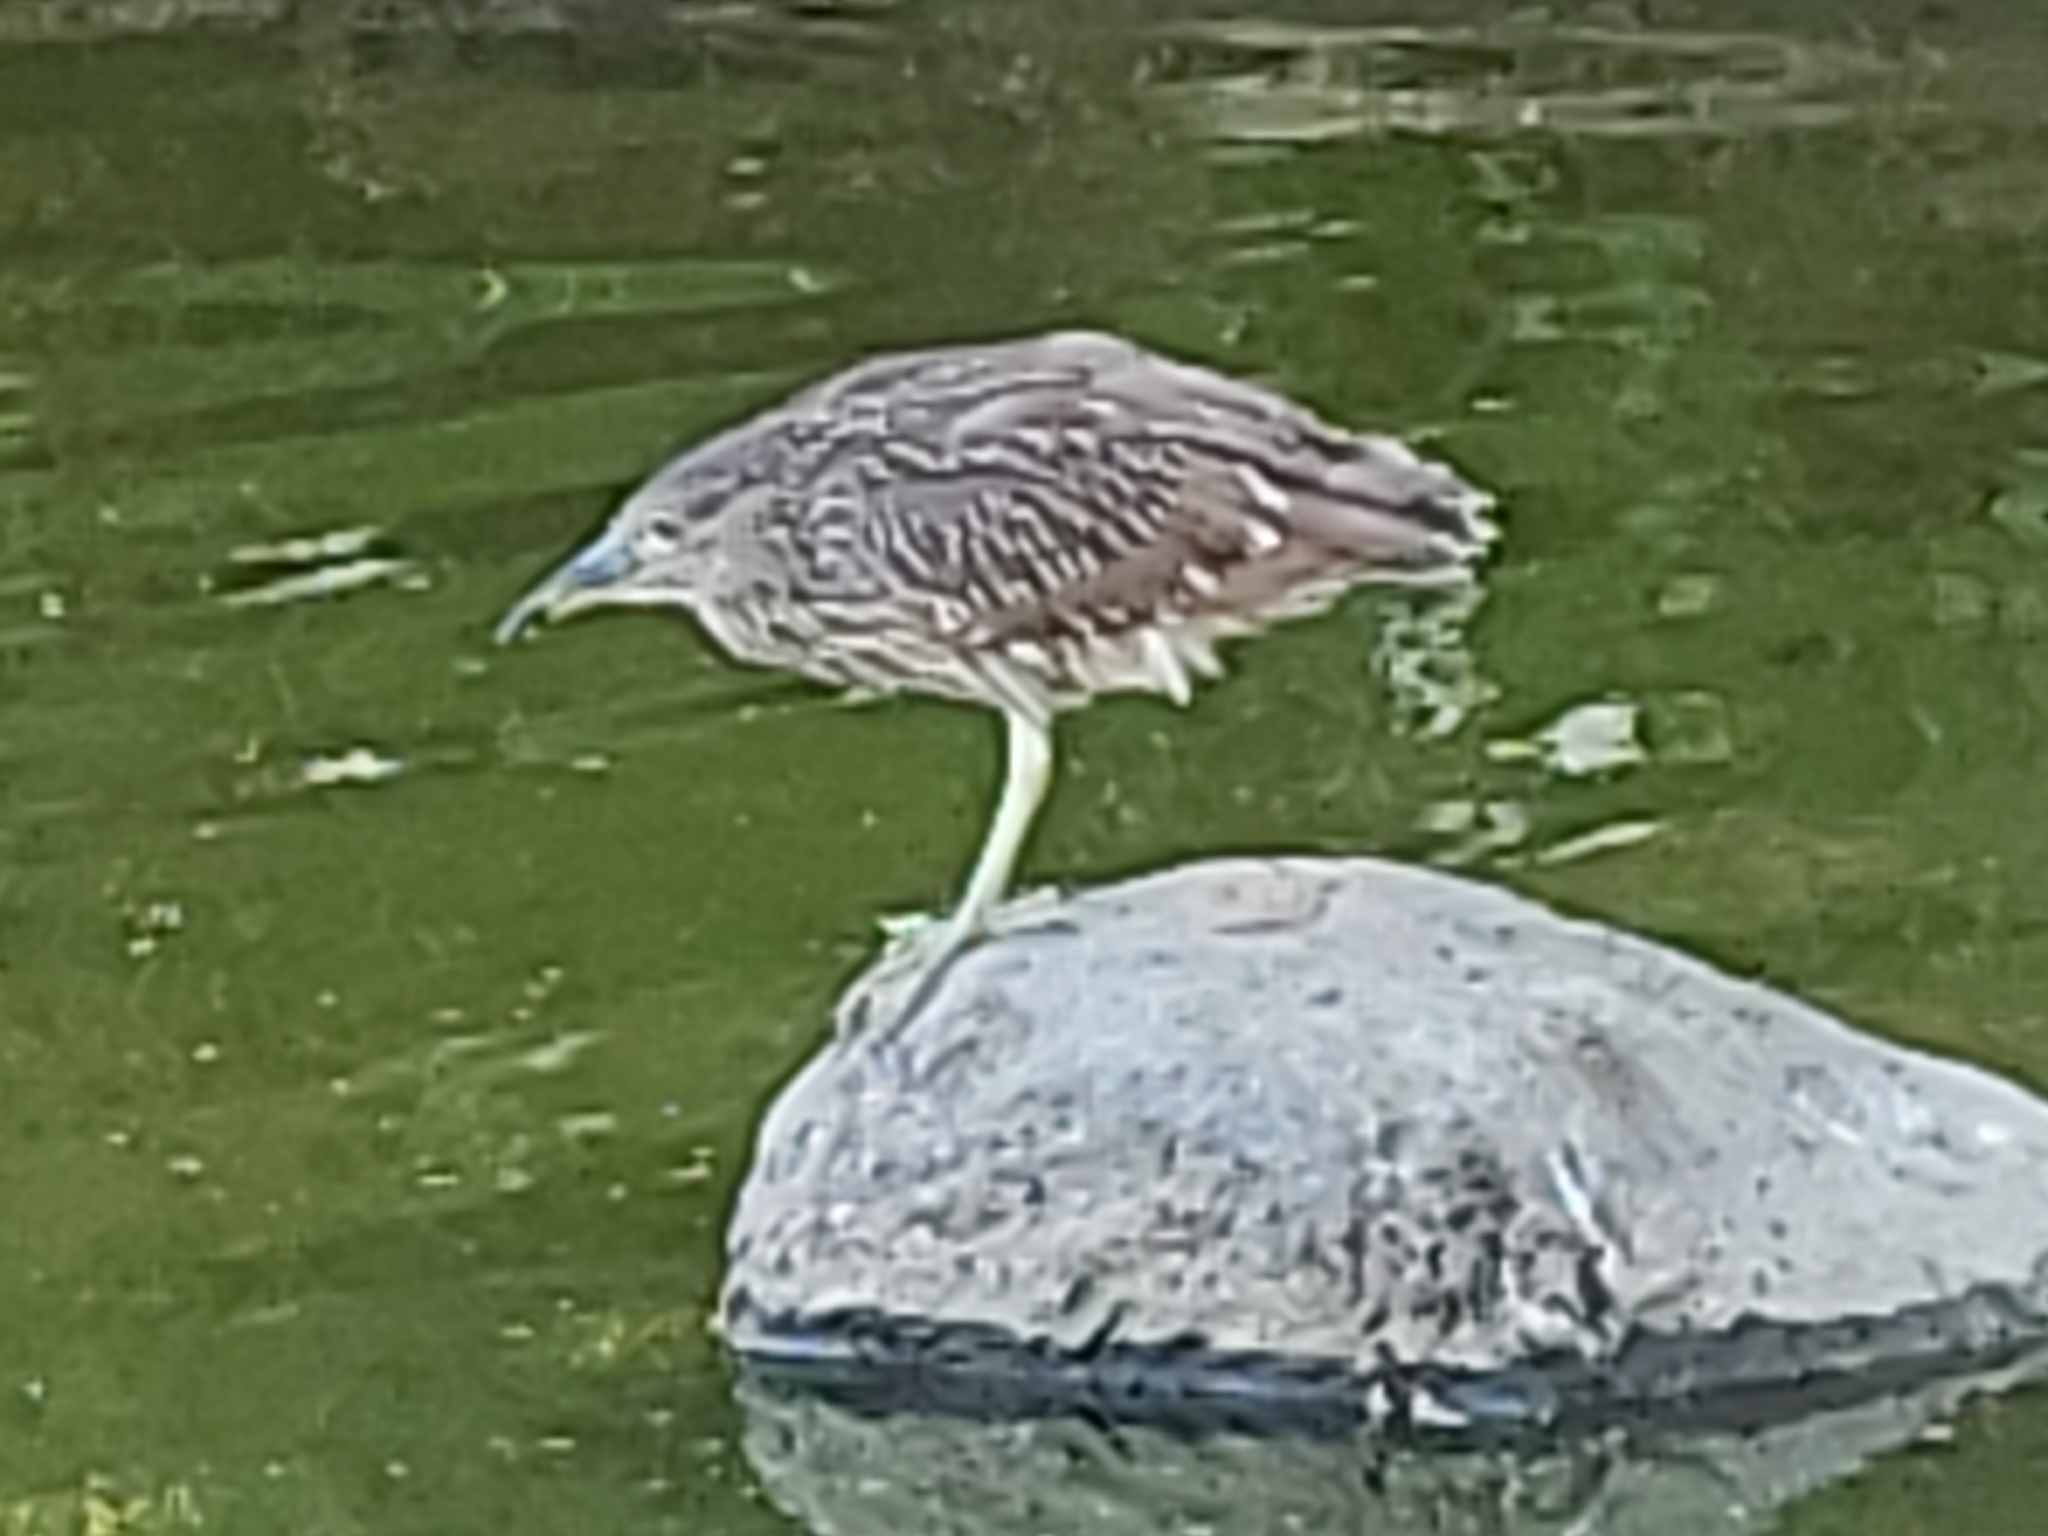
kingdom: Animalia
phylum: Chordata
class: Aves
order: Pelecaniformes
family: Ardeidae
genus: Nycticorax
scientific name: Nycticorax nycticorax
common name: Black-crowned night heron
